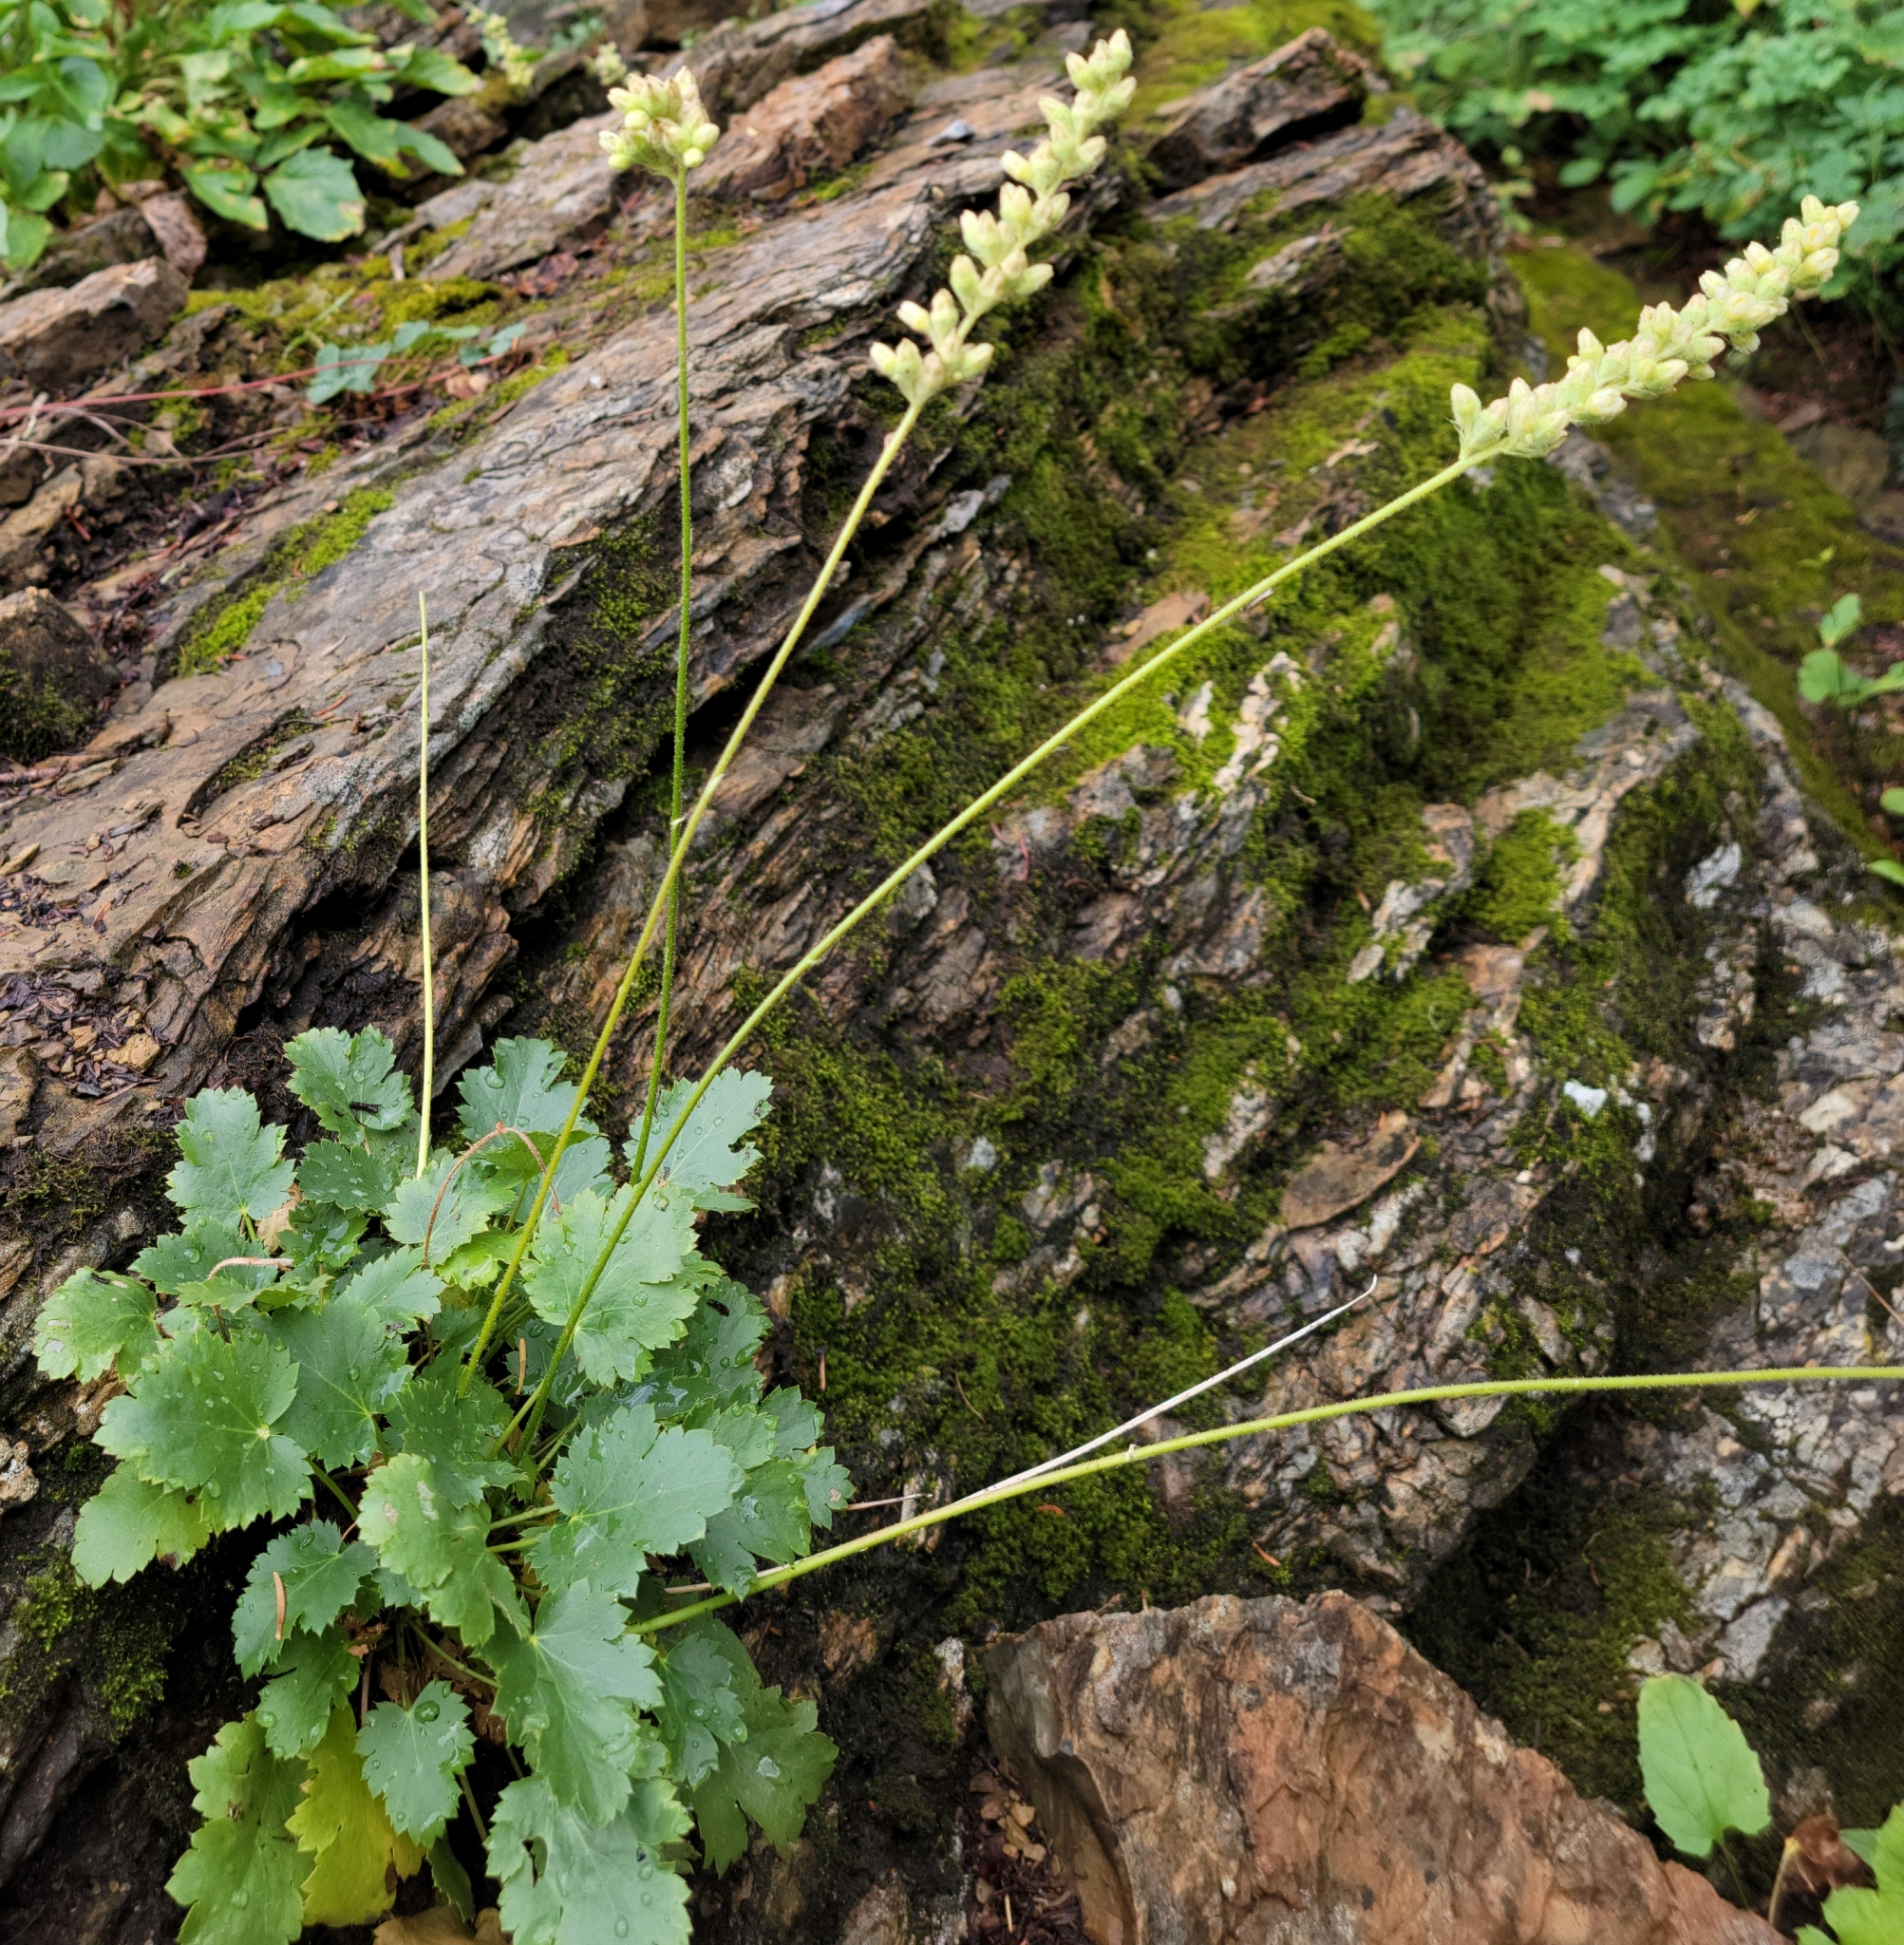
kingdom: Plantae
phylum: Tracheophyta
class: Magnoliopsida
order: Saxifragales
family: Saxifragaceae
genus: Heuchera
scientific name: Heuchera cylindrica
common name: Mat alumroot
